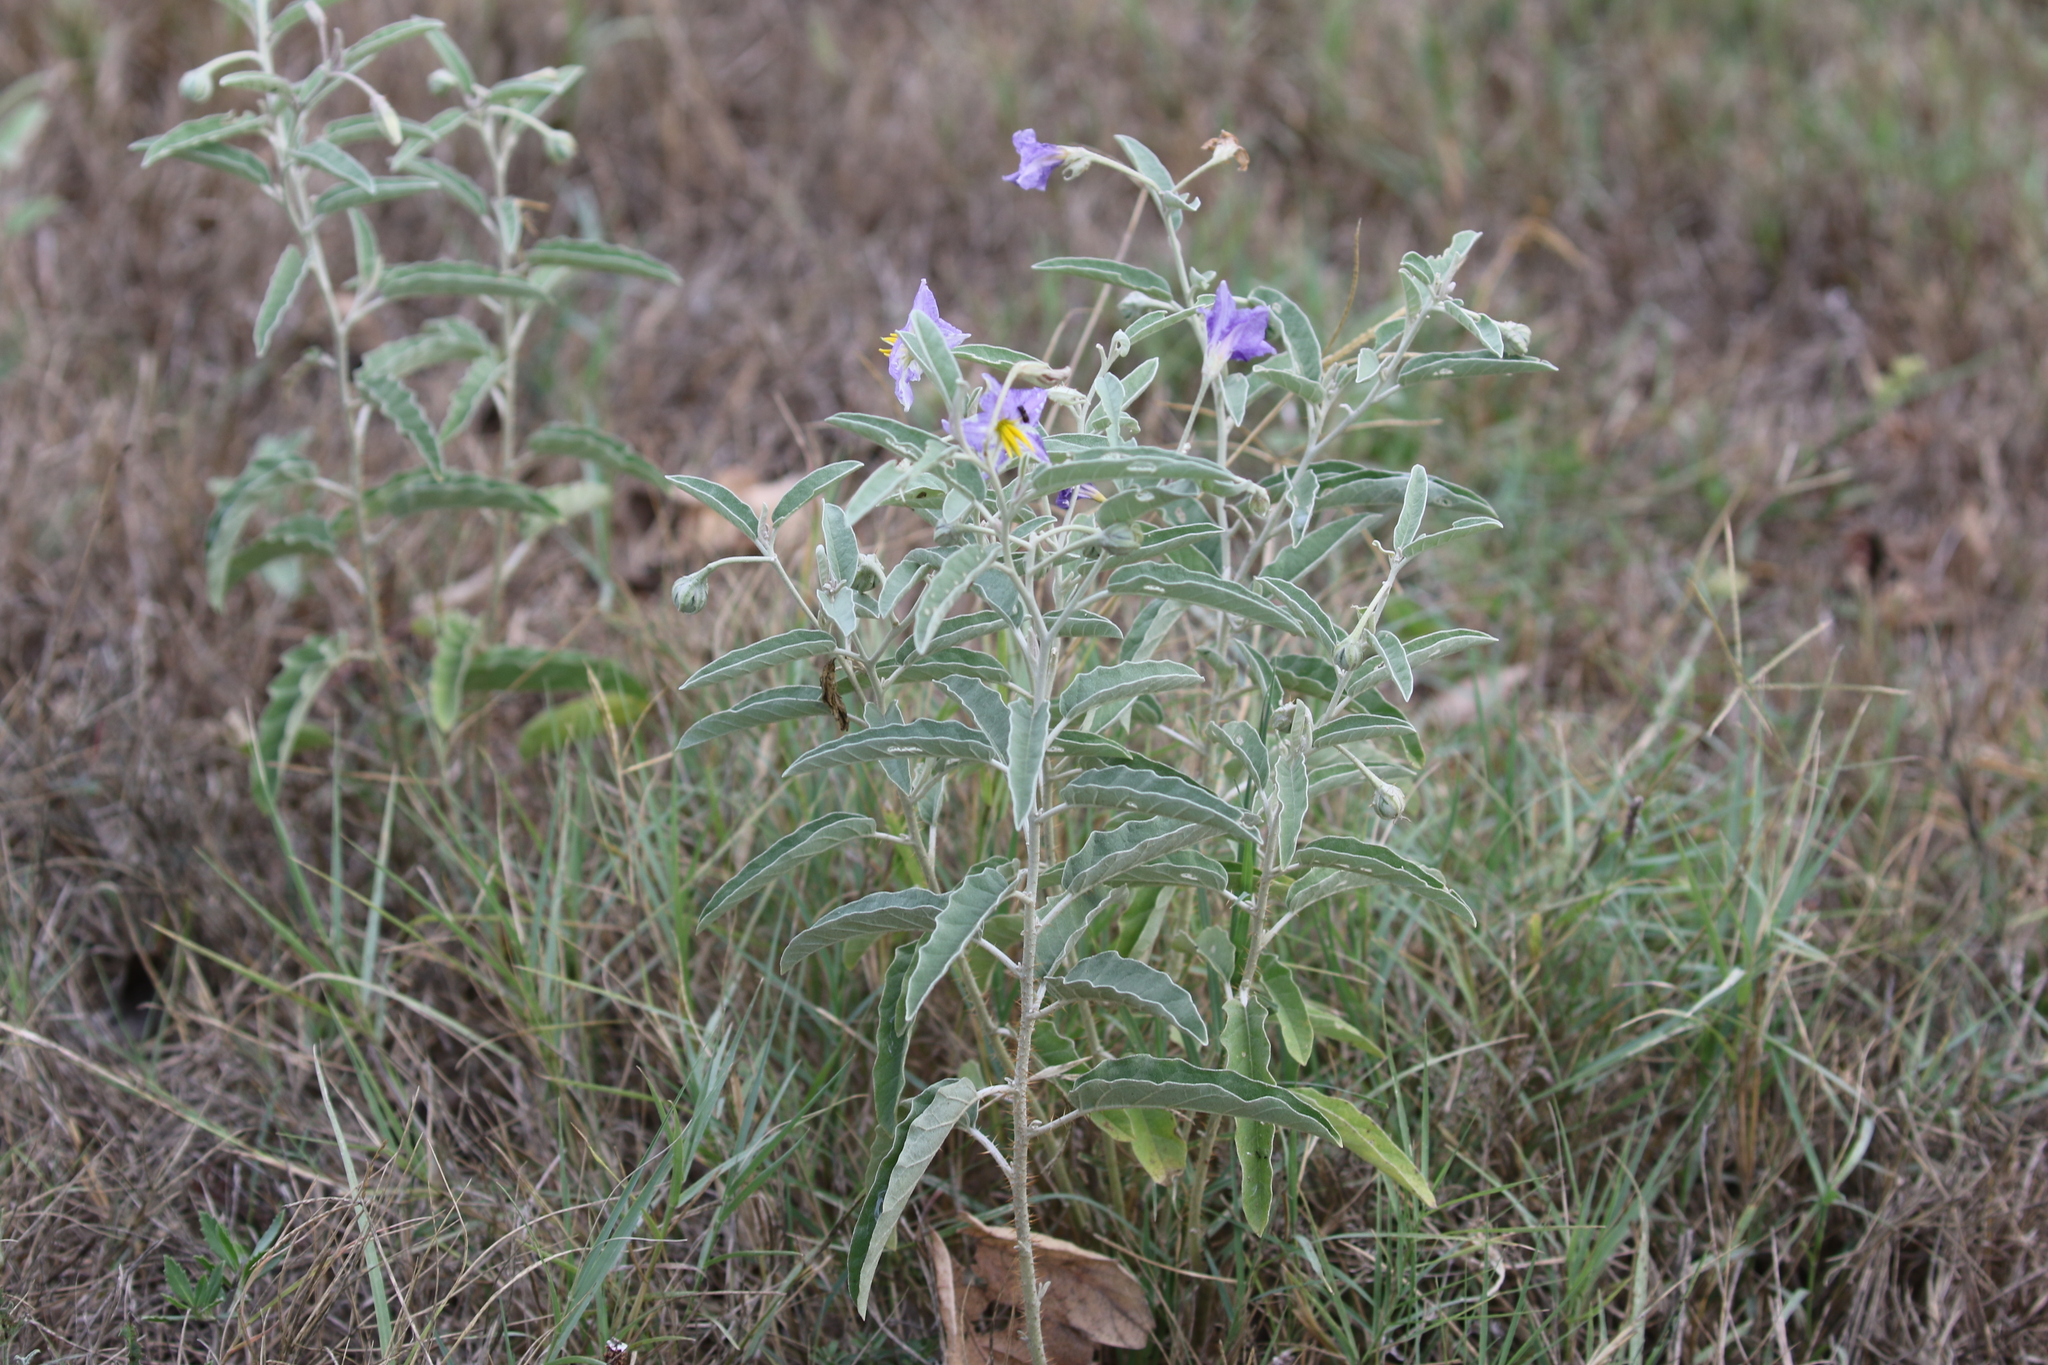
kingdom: Plantae
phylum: Tracheophyta
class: Magnoliopsida
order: Solanales
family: Solanaceae
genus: Solanum
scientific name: Solanum elaeagnifolium
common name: Silverleaf nightshade
